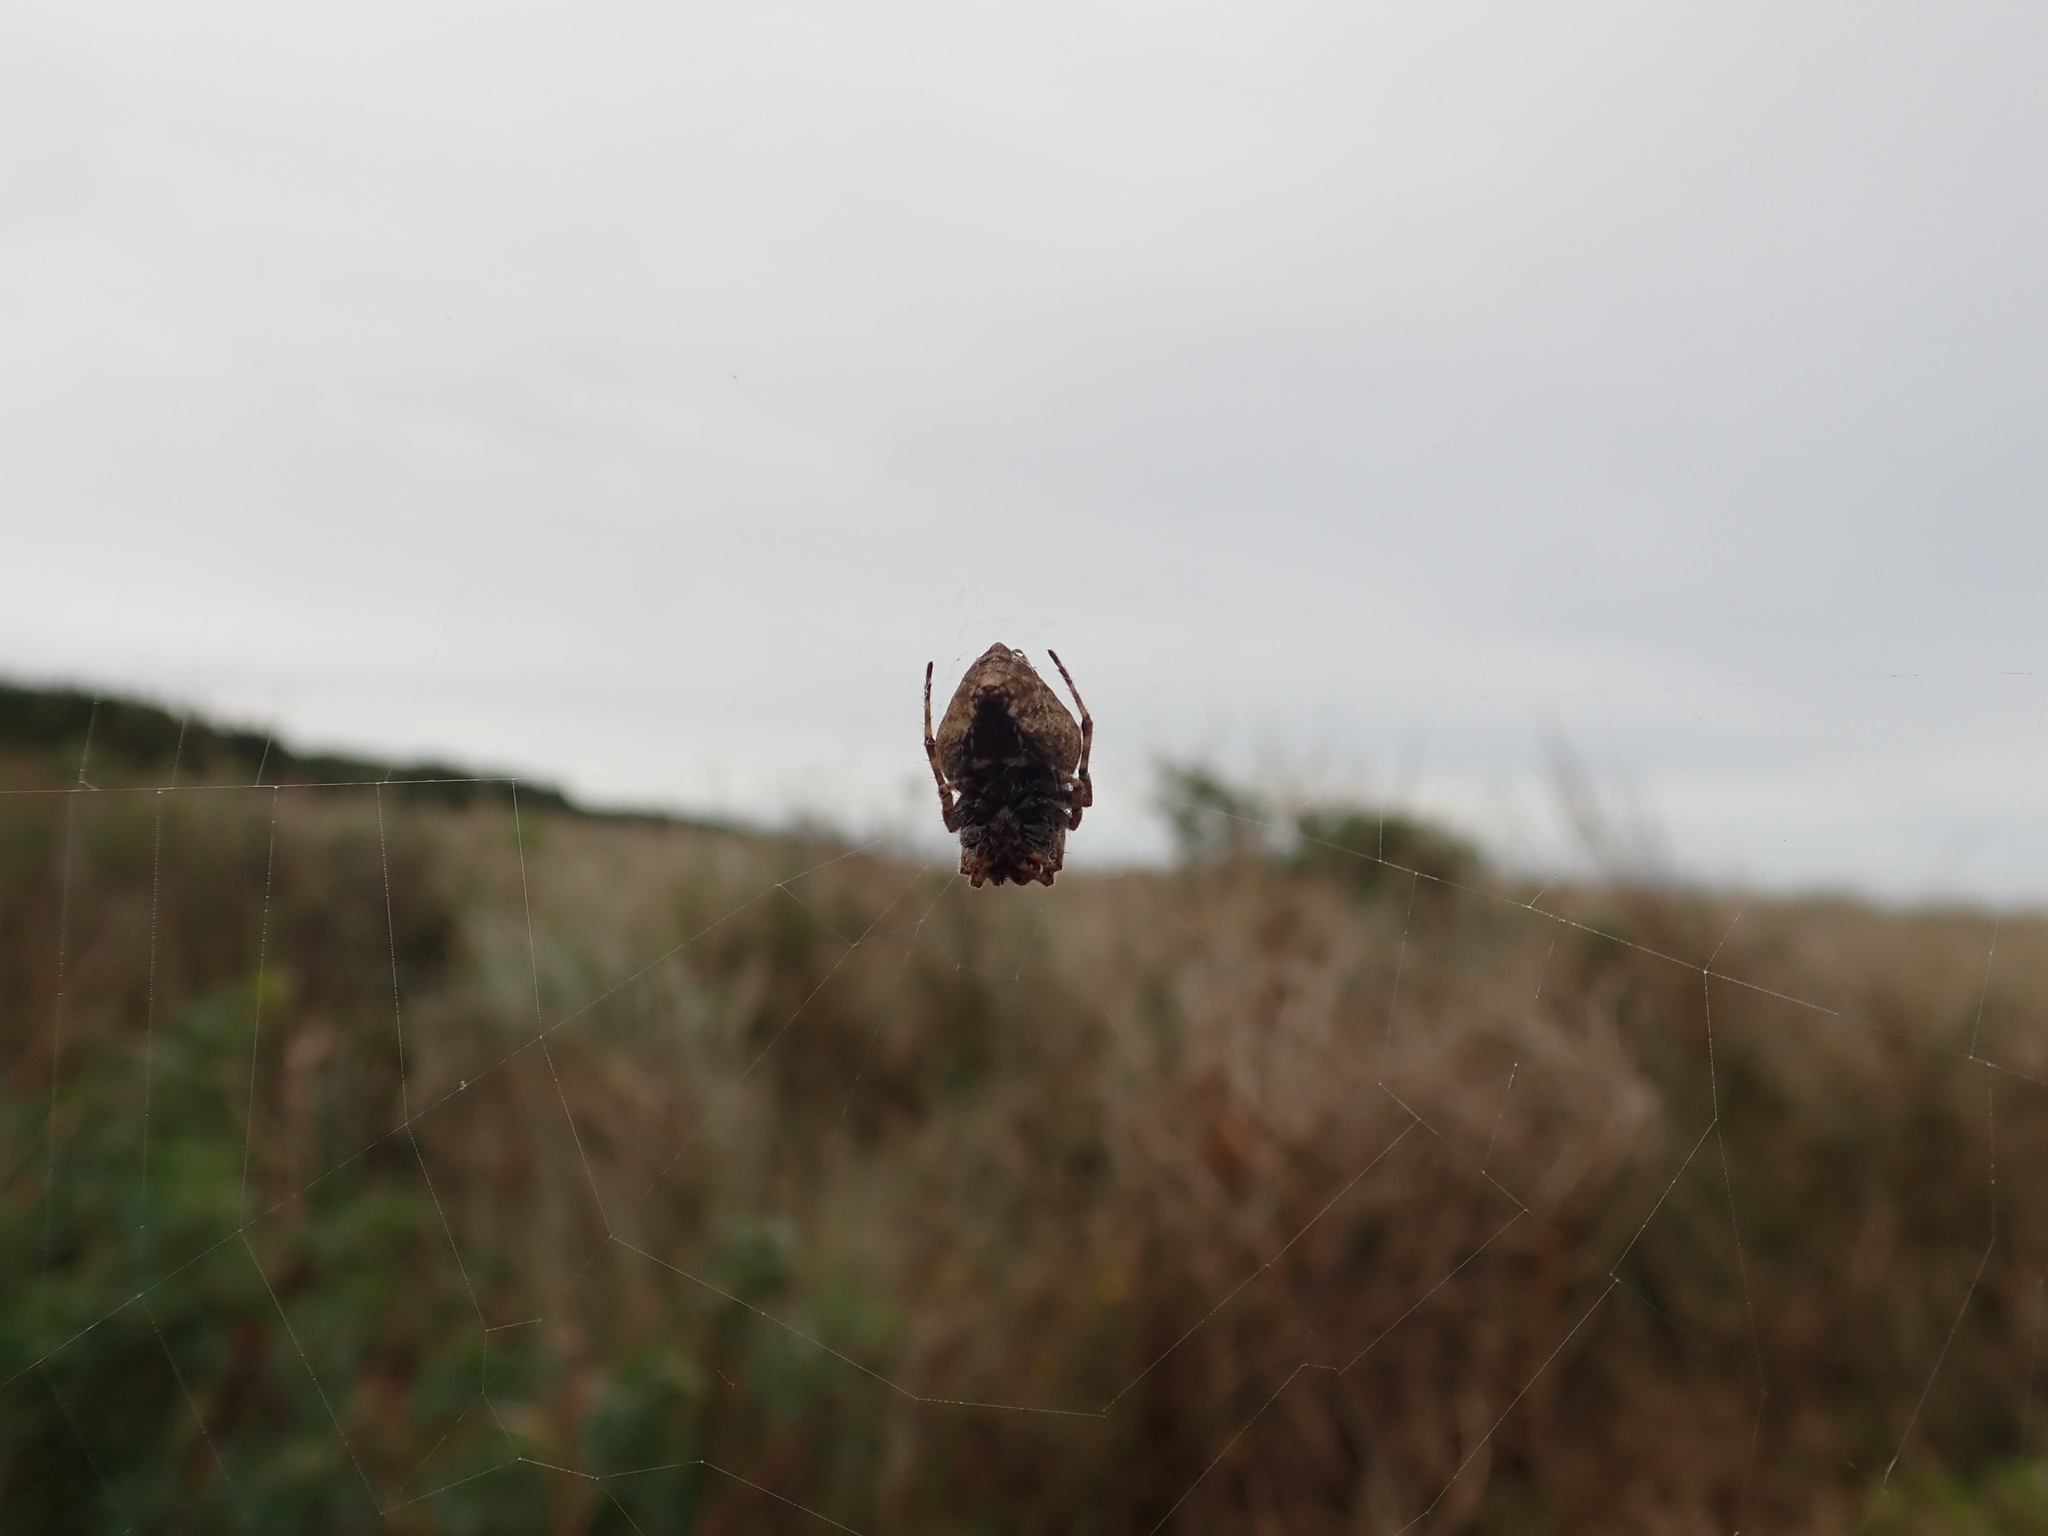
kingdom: Animalia
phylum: Arthropoda
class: Arachnida
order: Araneae
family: Araneidae
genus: Eriophora
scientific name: Eriophora pustulosa
